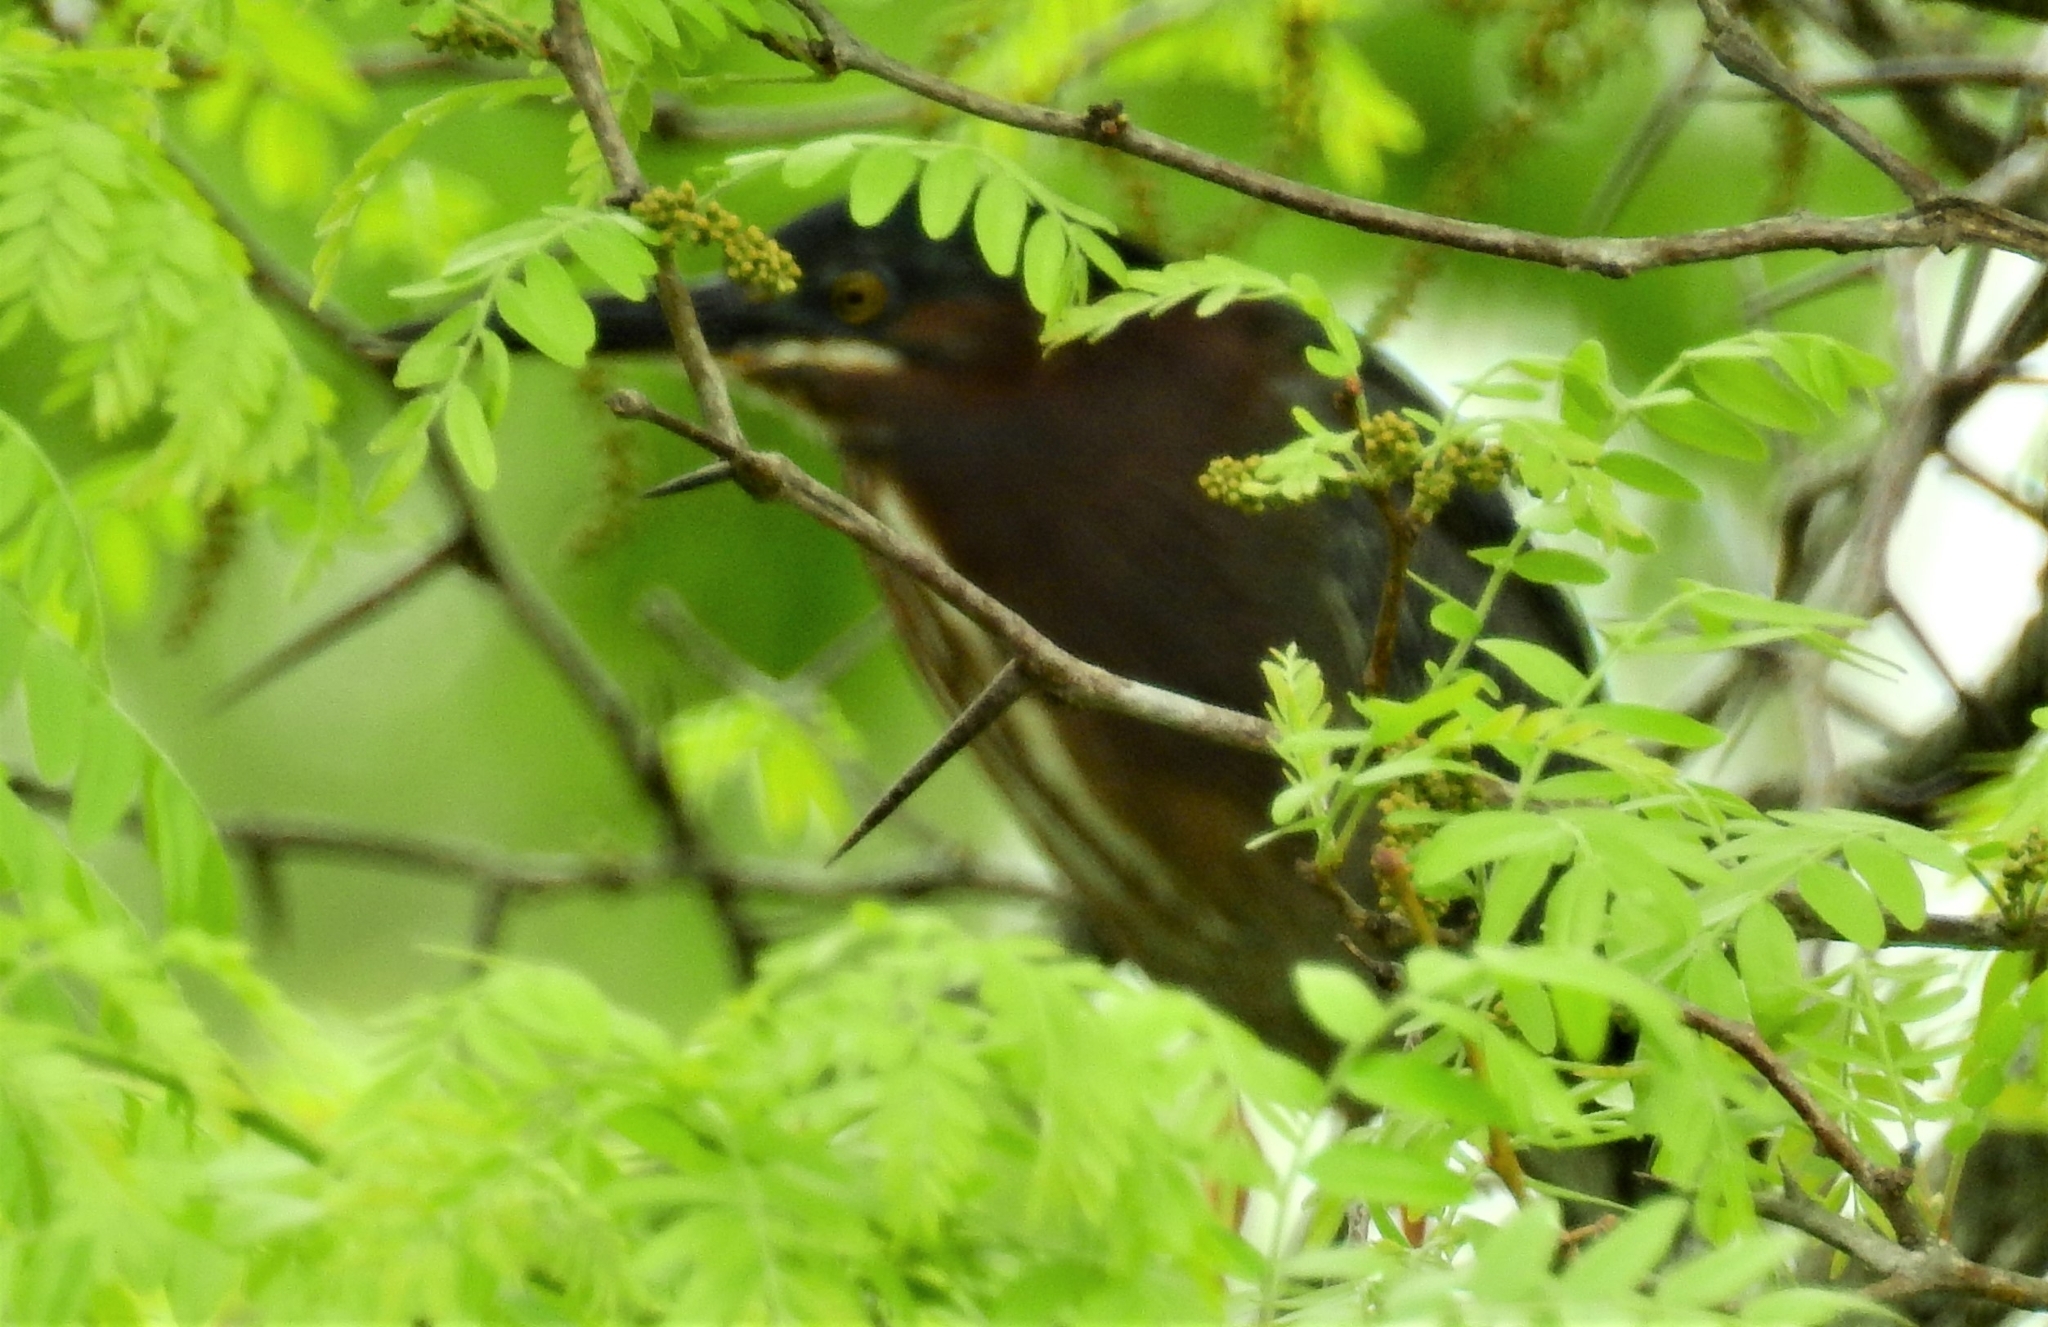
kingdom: Animalia
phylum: Chordata
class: Aves
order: Pelecaniformes
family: Ardeidae
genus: Butorides
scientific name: Butorides virescens
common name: Green heron
